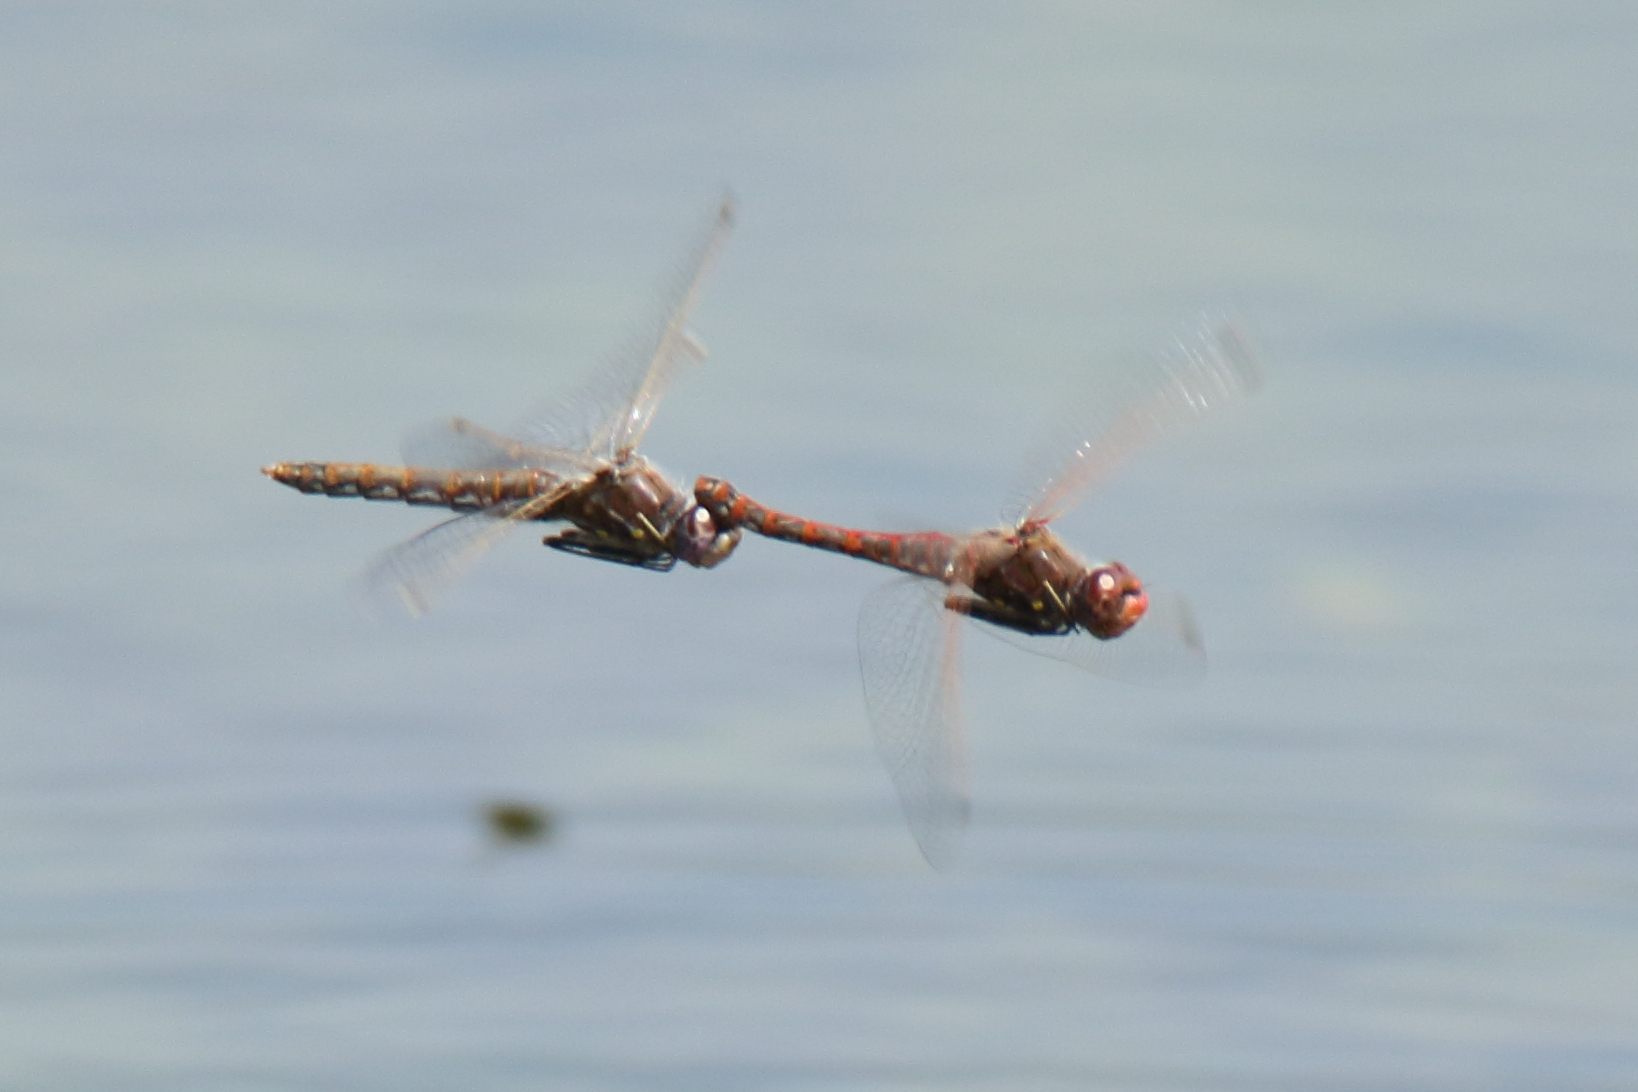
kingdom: Animalia
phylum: Arthropoda
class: Insecta
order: Odonata
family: Libellulidae
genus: Sympetrum
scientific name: Sympetrum corruptum
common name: Variegated meadowhawk
